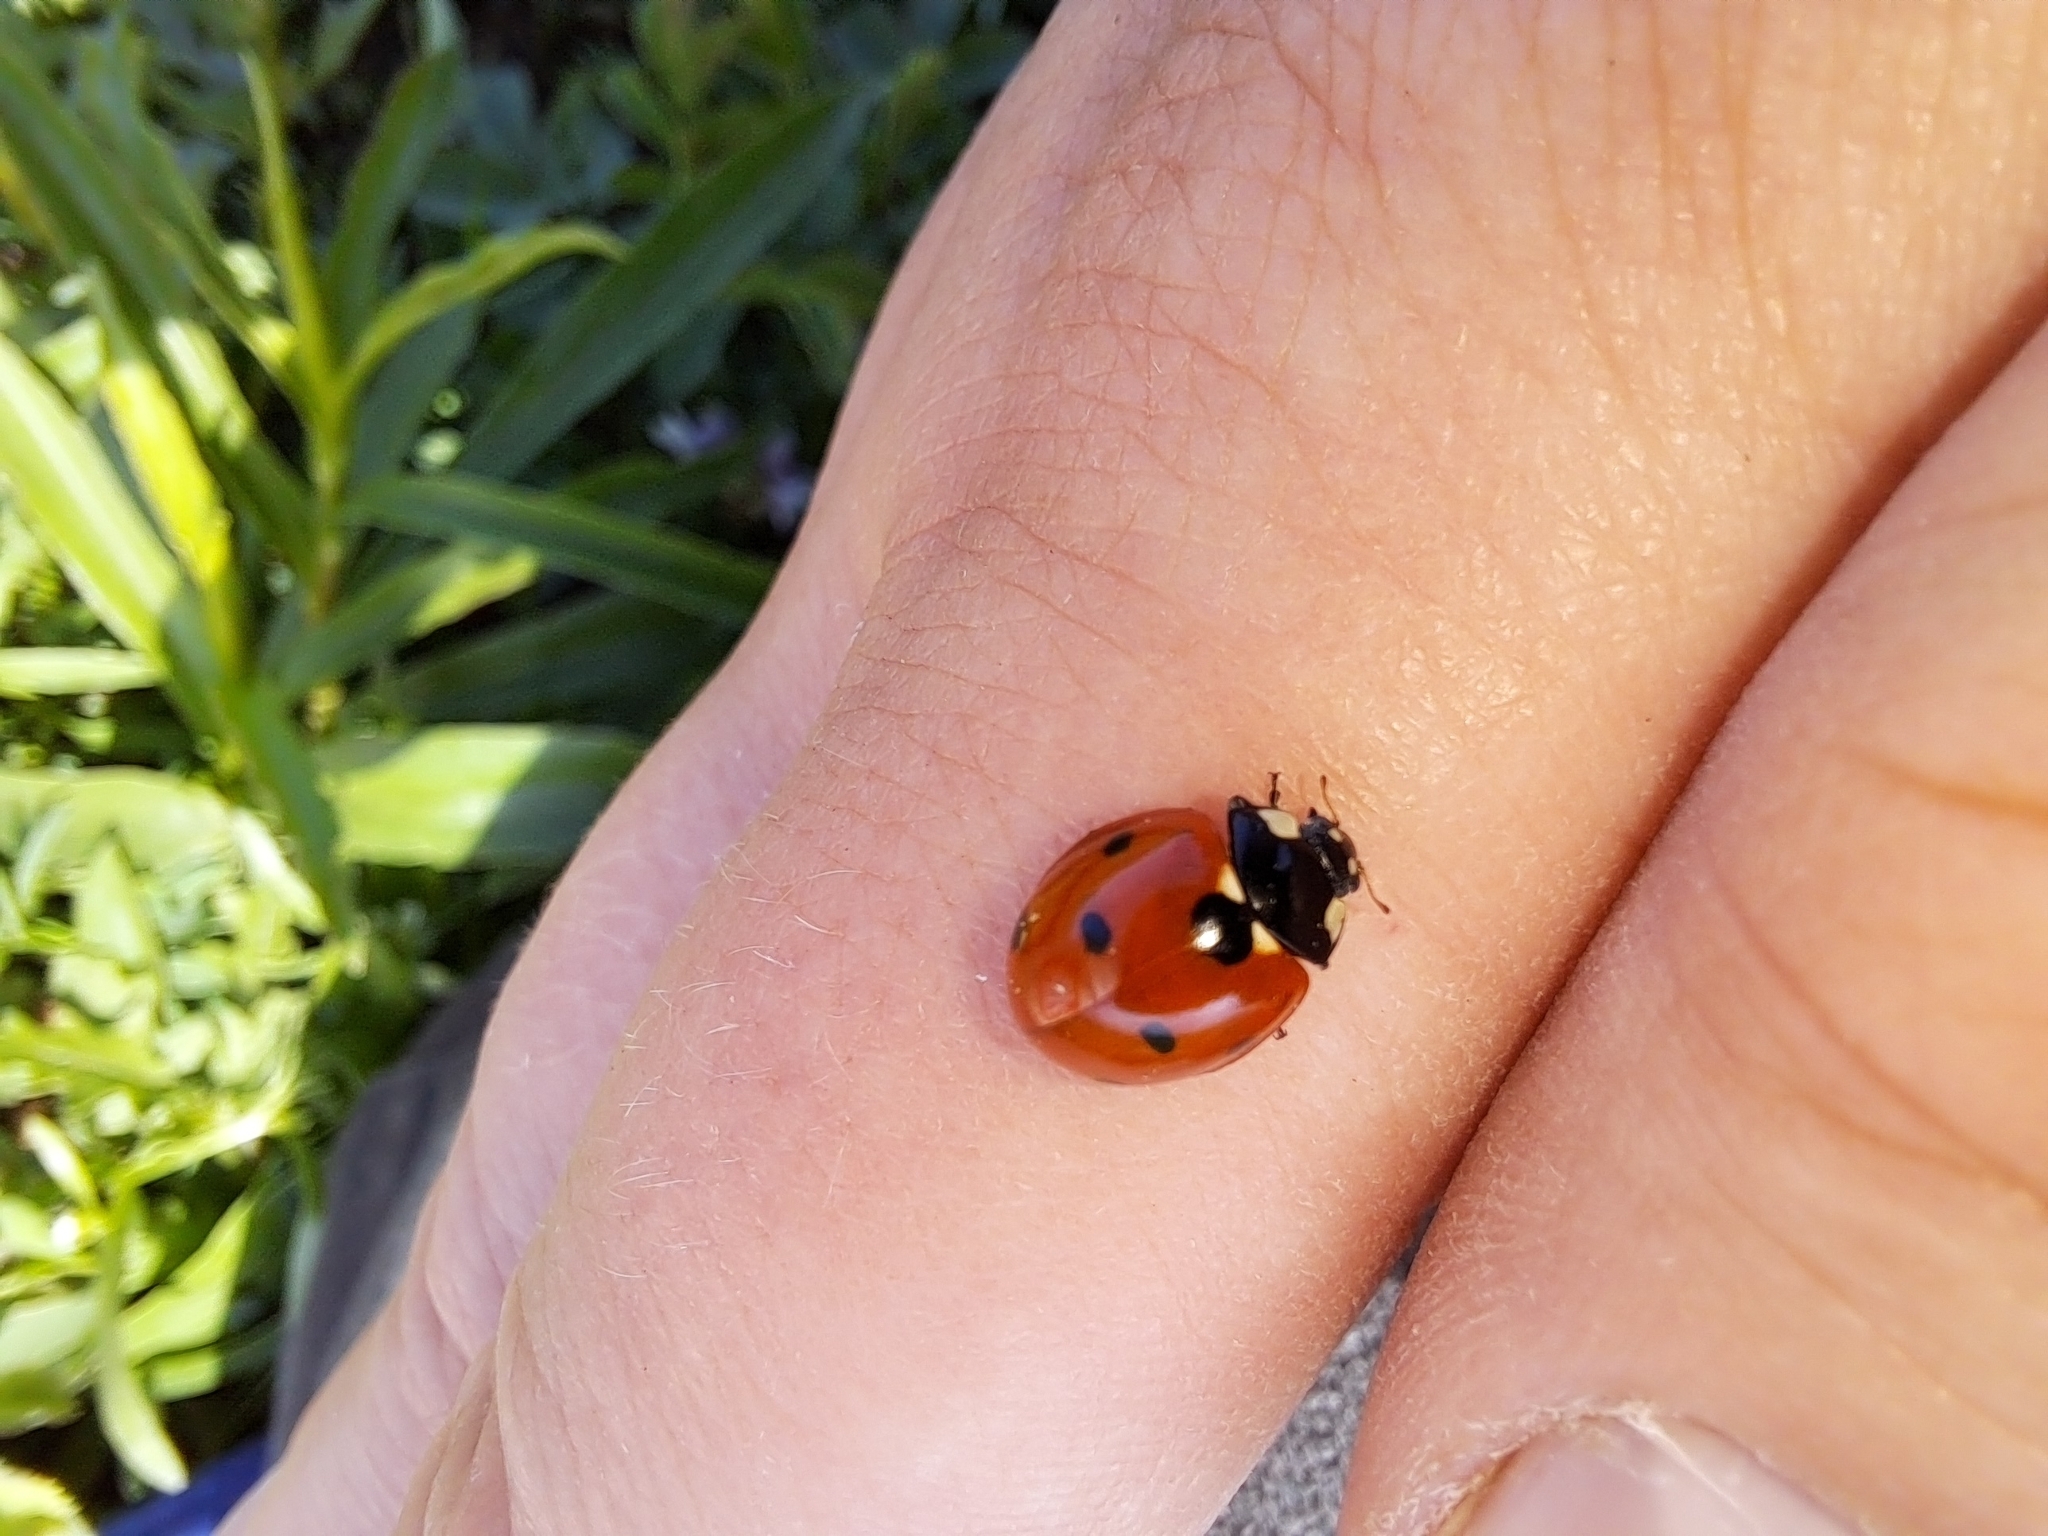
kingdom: Animalia
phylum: Arthropoda
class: Insecta
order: Coleoptera
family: Coccinellidae
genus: Coccinella
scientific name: Coccinella septempunctata
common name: Sevenspotted lady beetle
